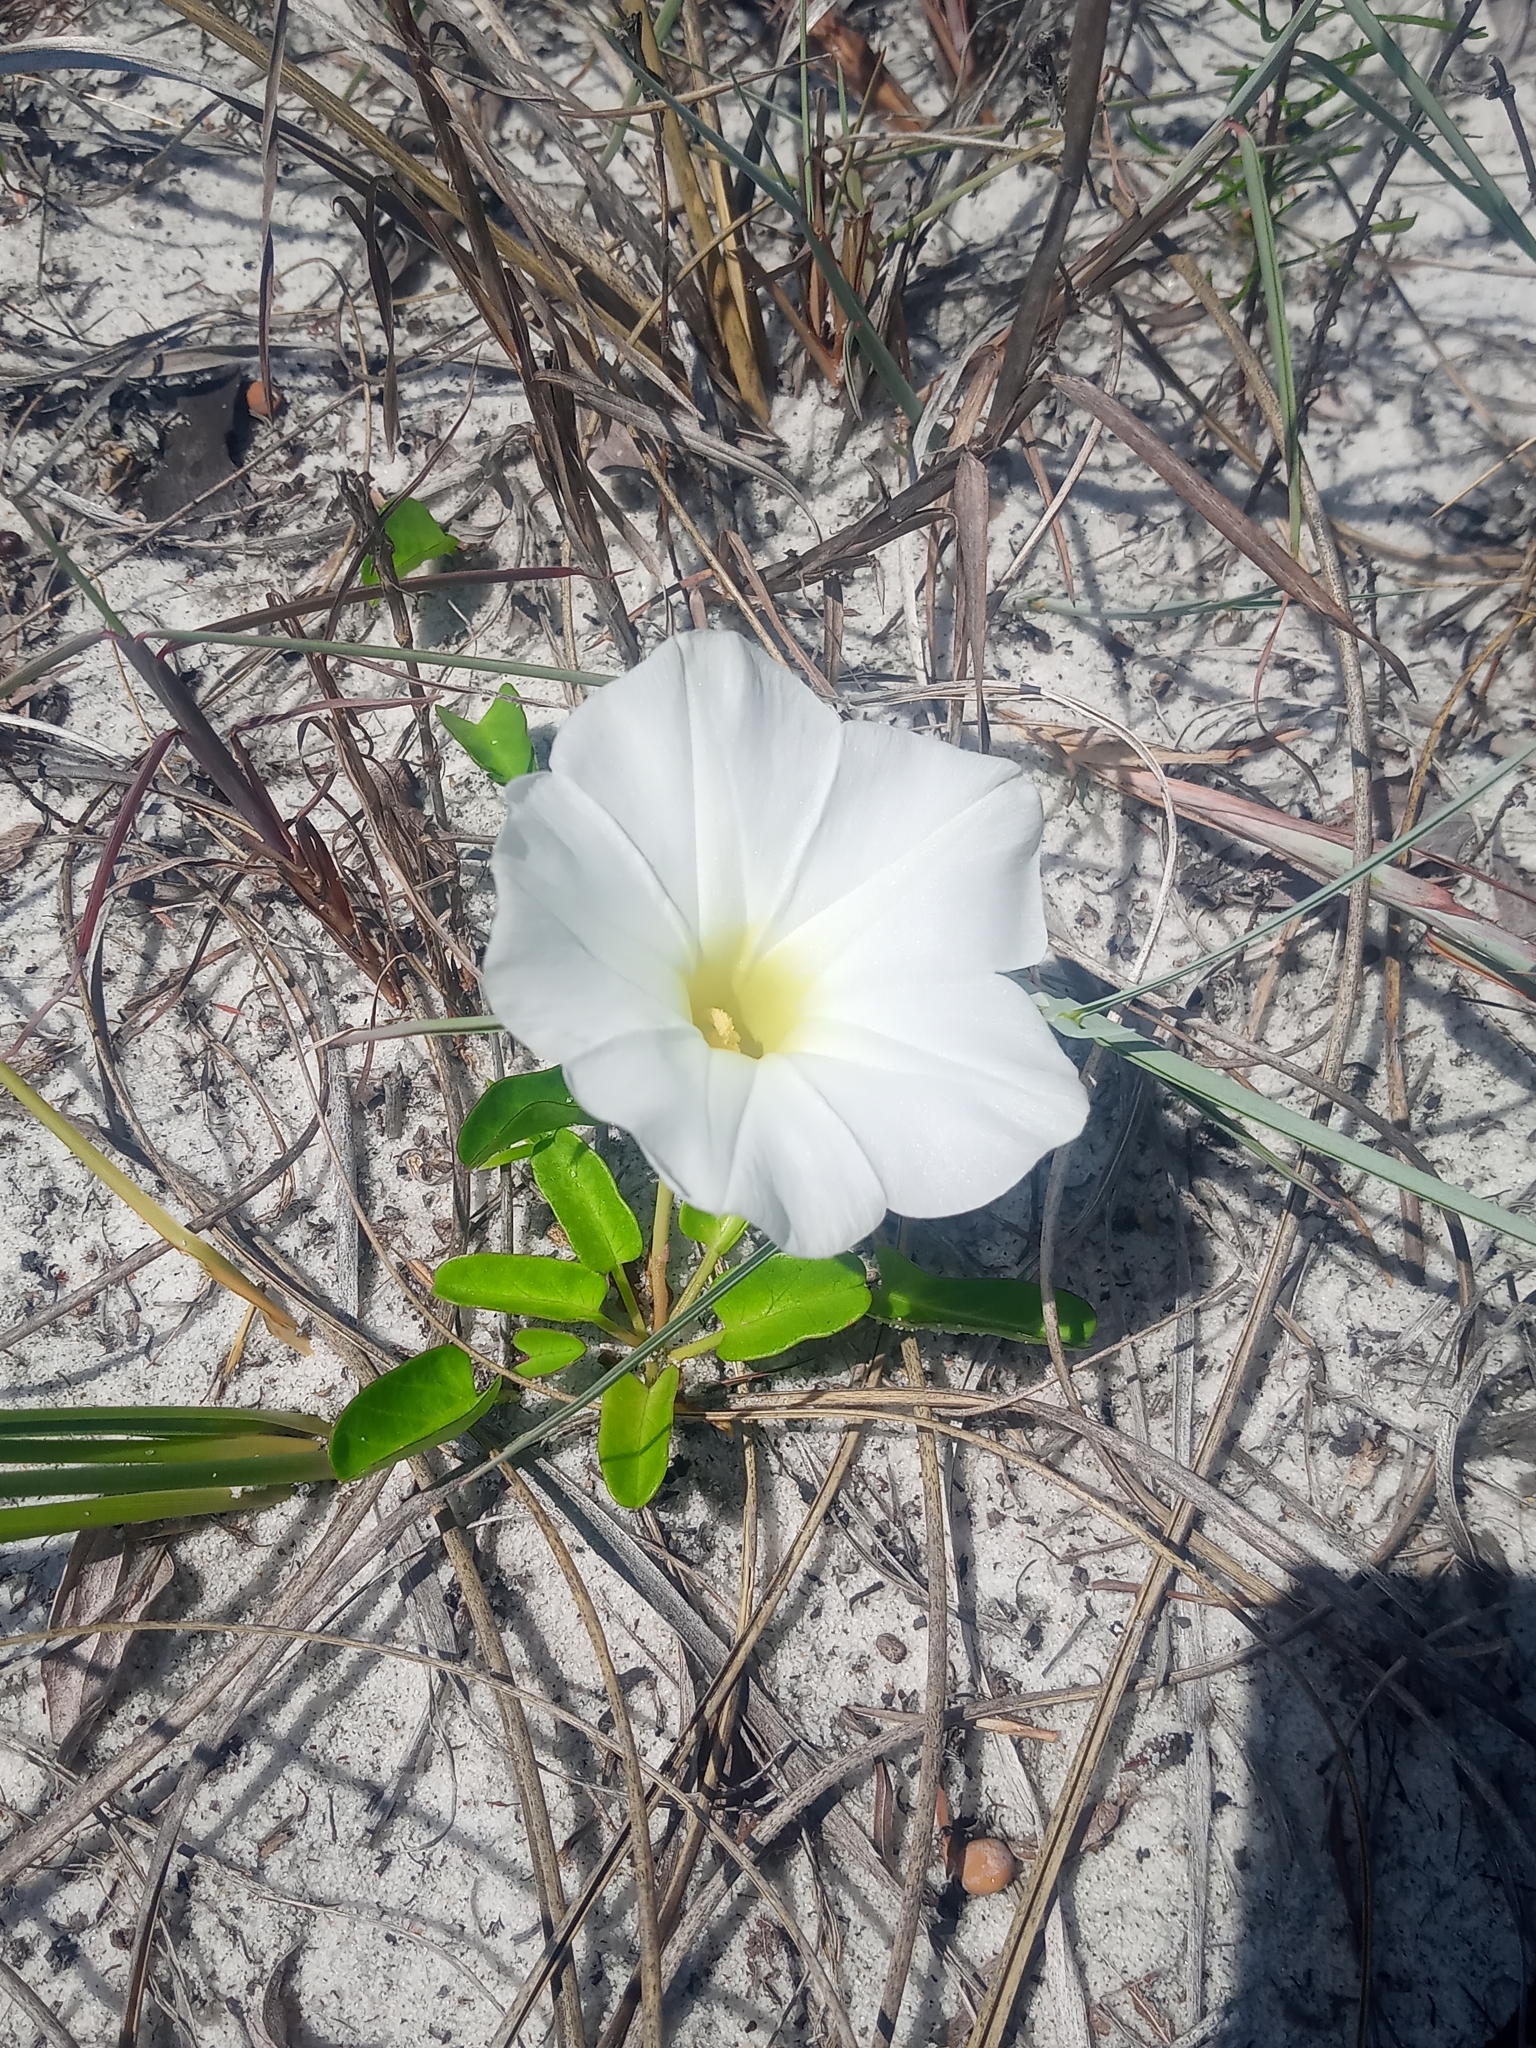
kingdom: Plantae
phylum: Tracheophyta
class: Magnoliopsida
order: Solanales
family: Convolvulaceae
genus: Ipomoea
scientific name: Ipomoea imperati
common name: Fiddle-leaf morning-glory
